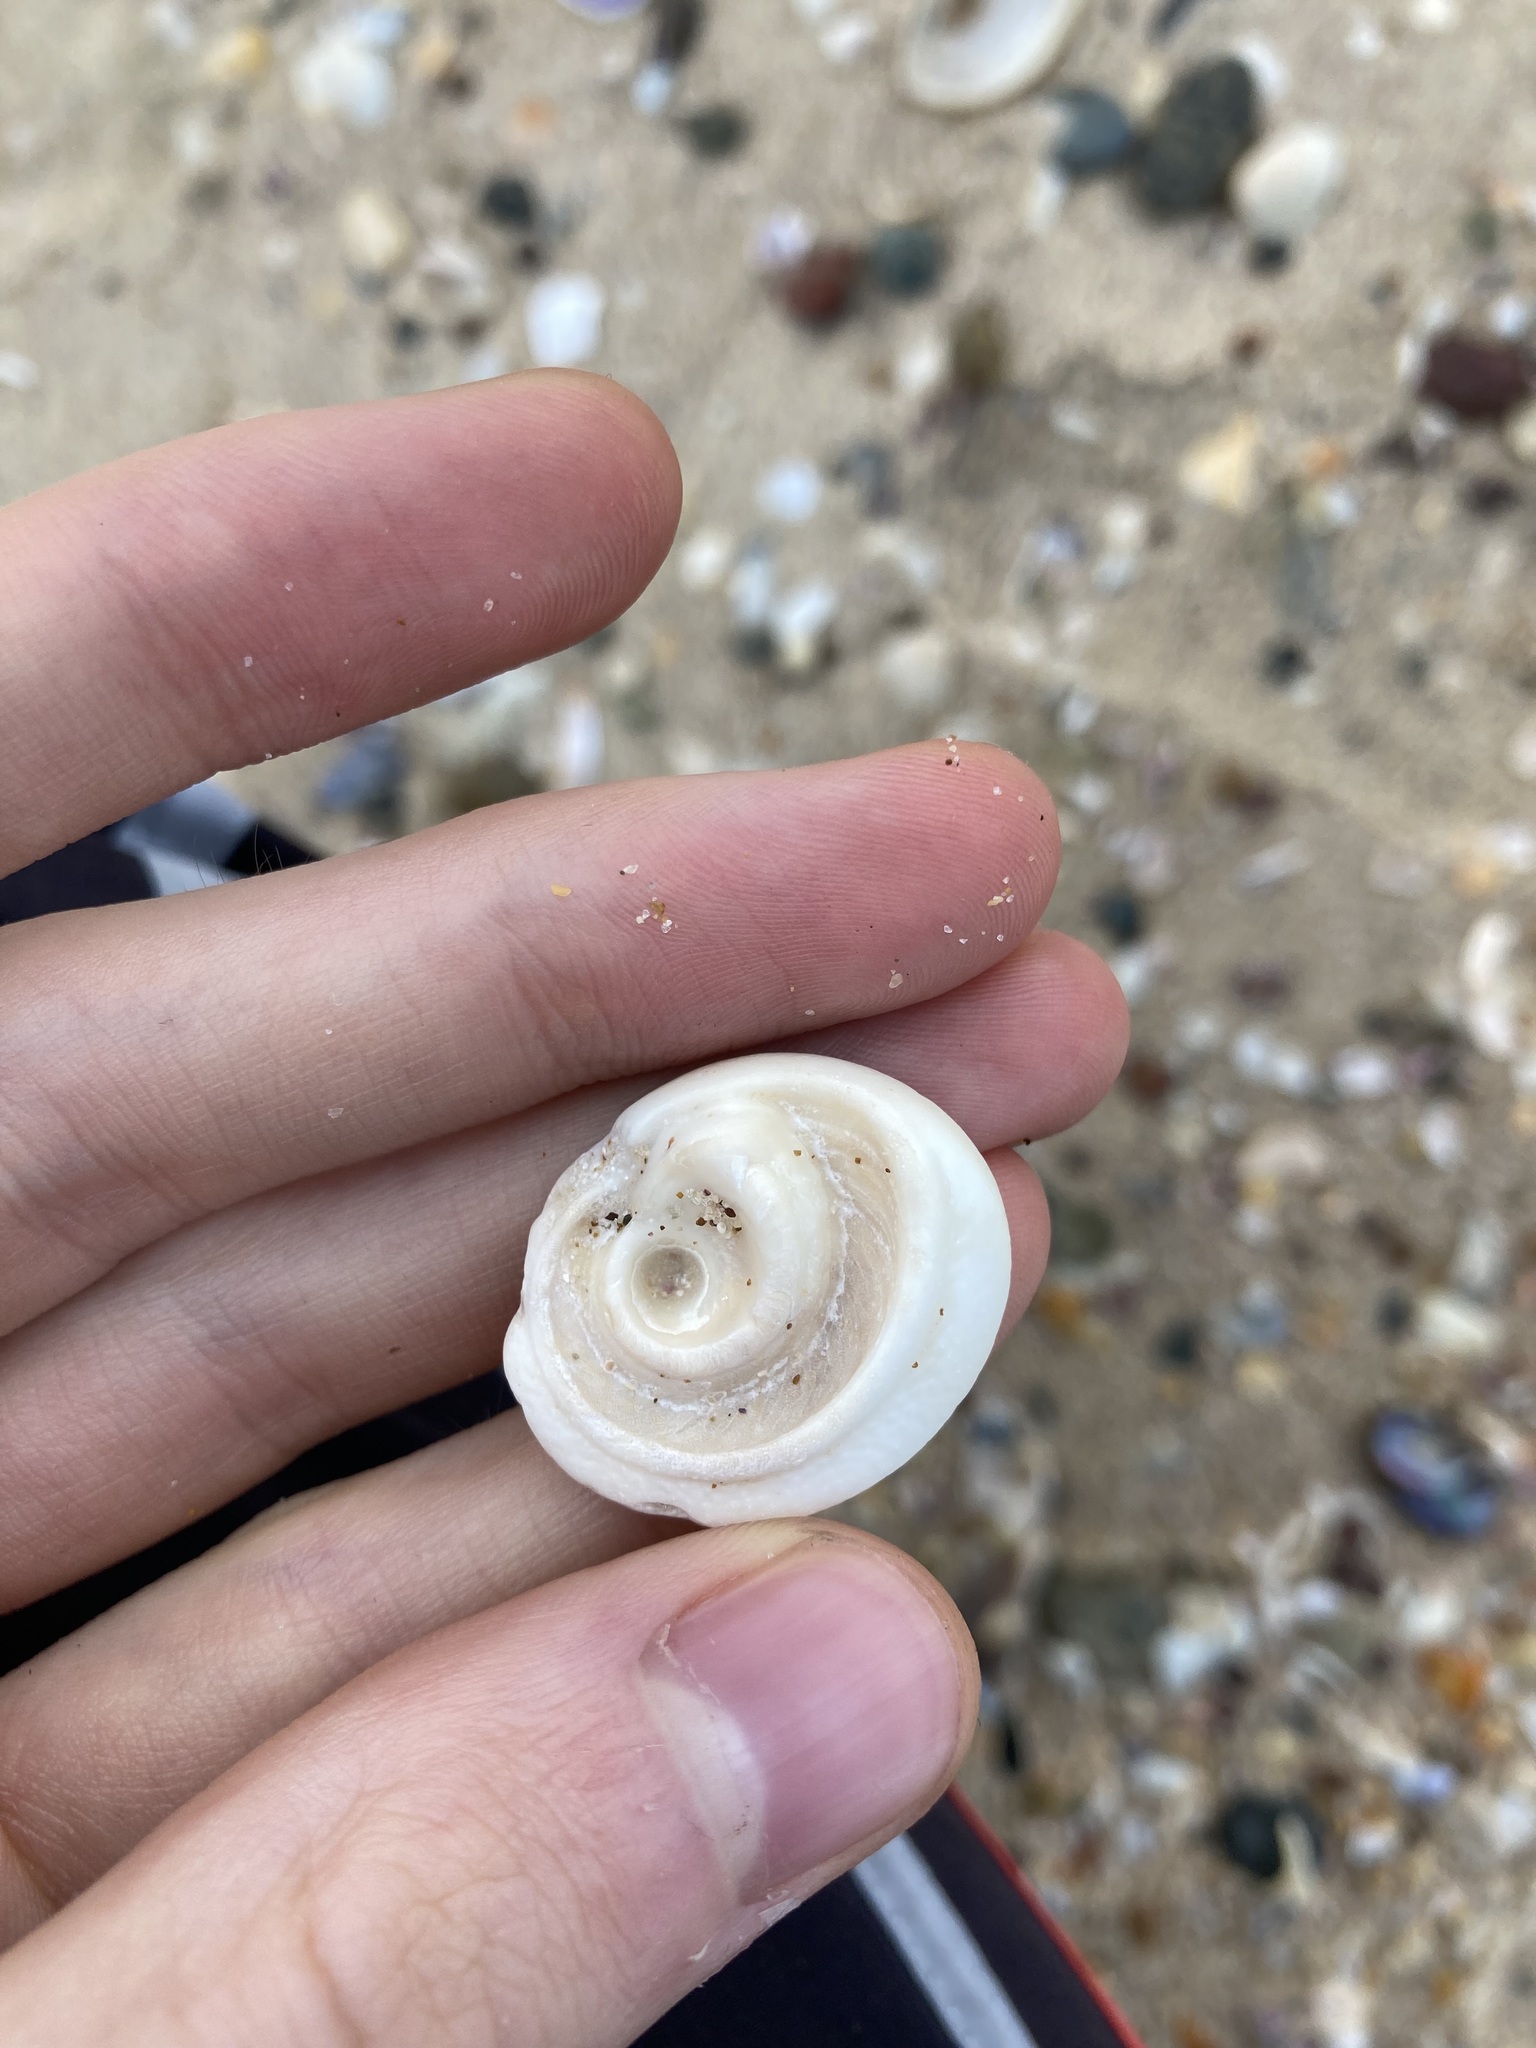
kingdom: Animalia
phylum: Mollusca
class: Gastropoda
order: Trochida
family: Turbinidae
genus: Lunella
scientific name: Lunella torquata
